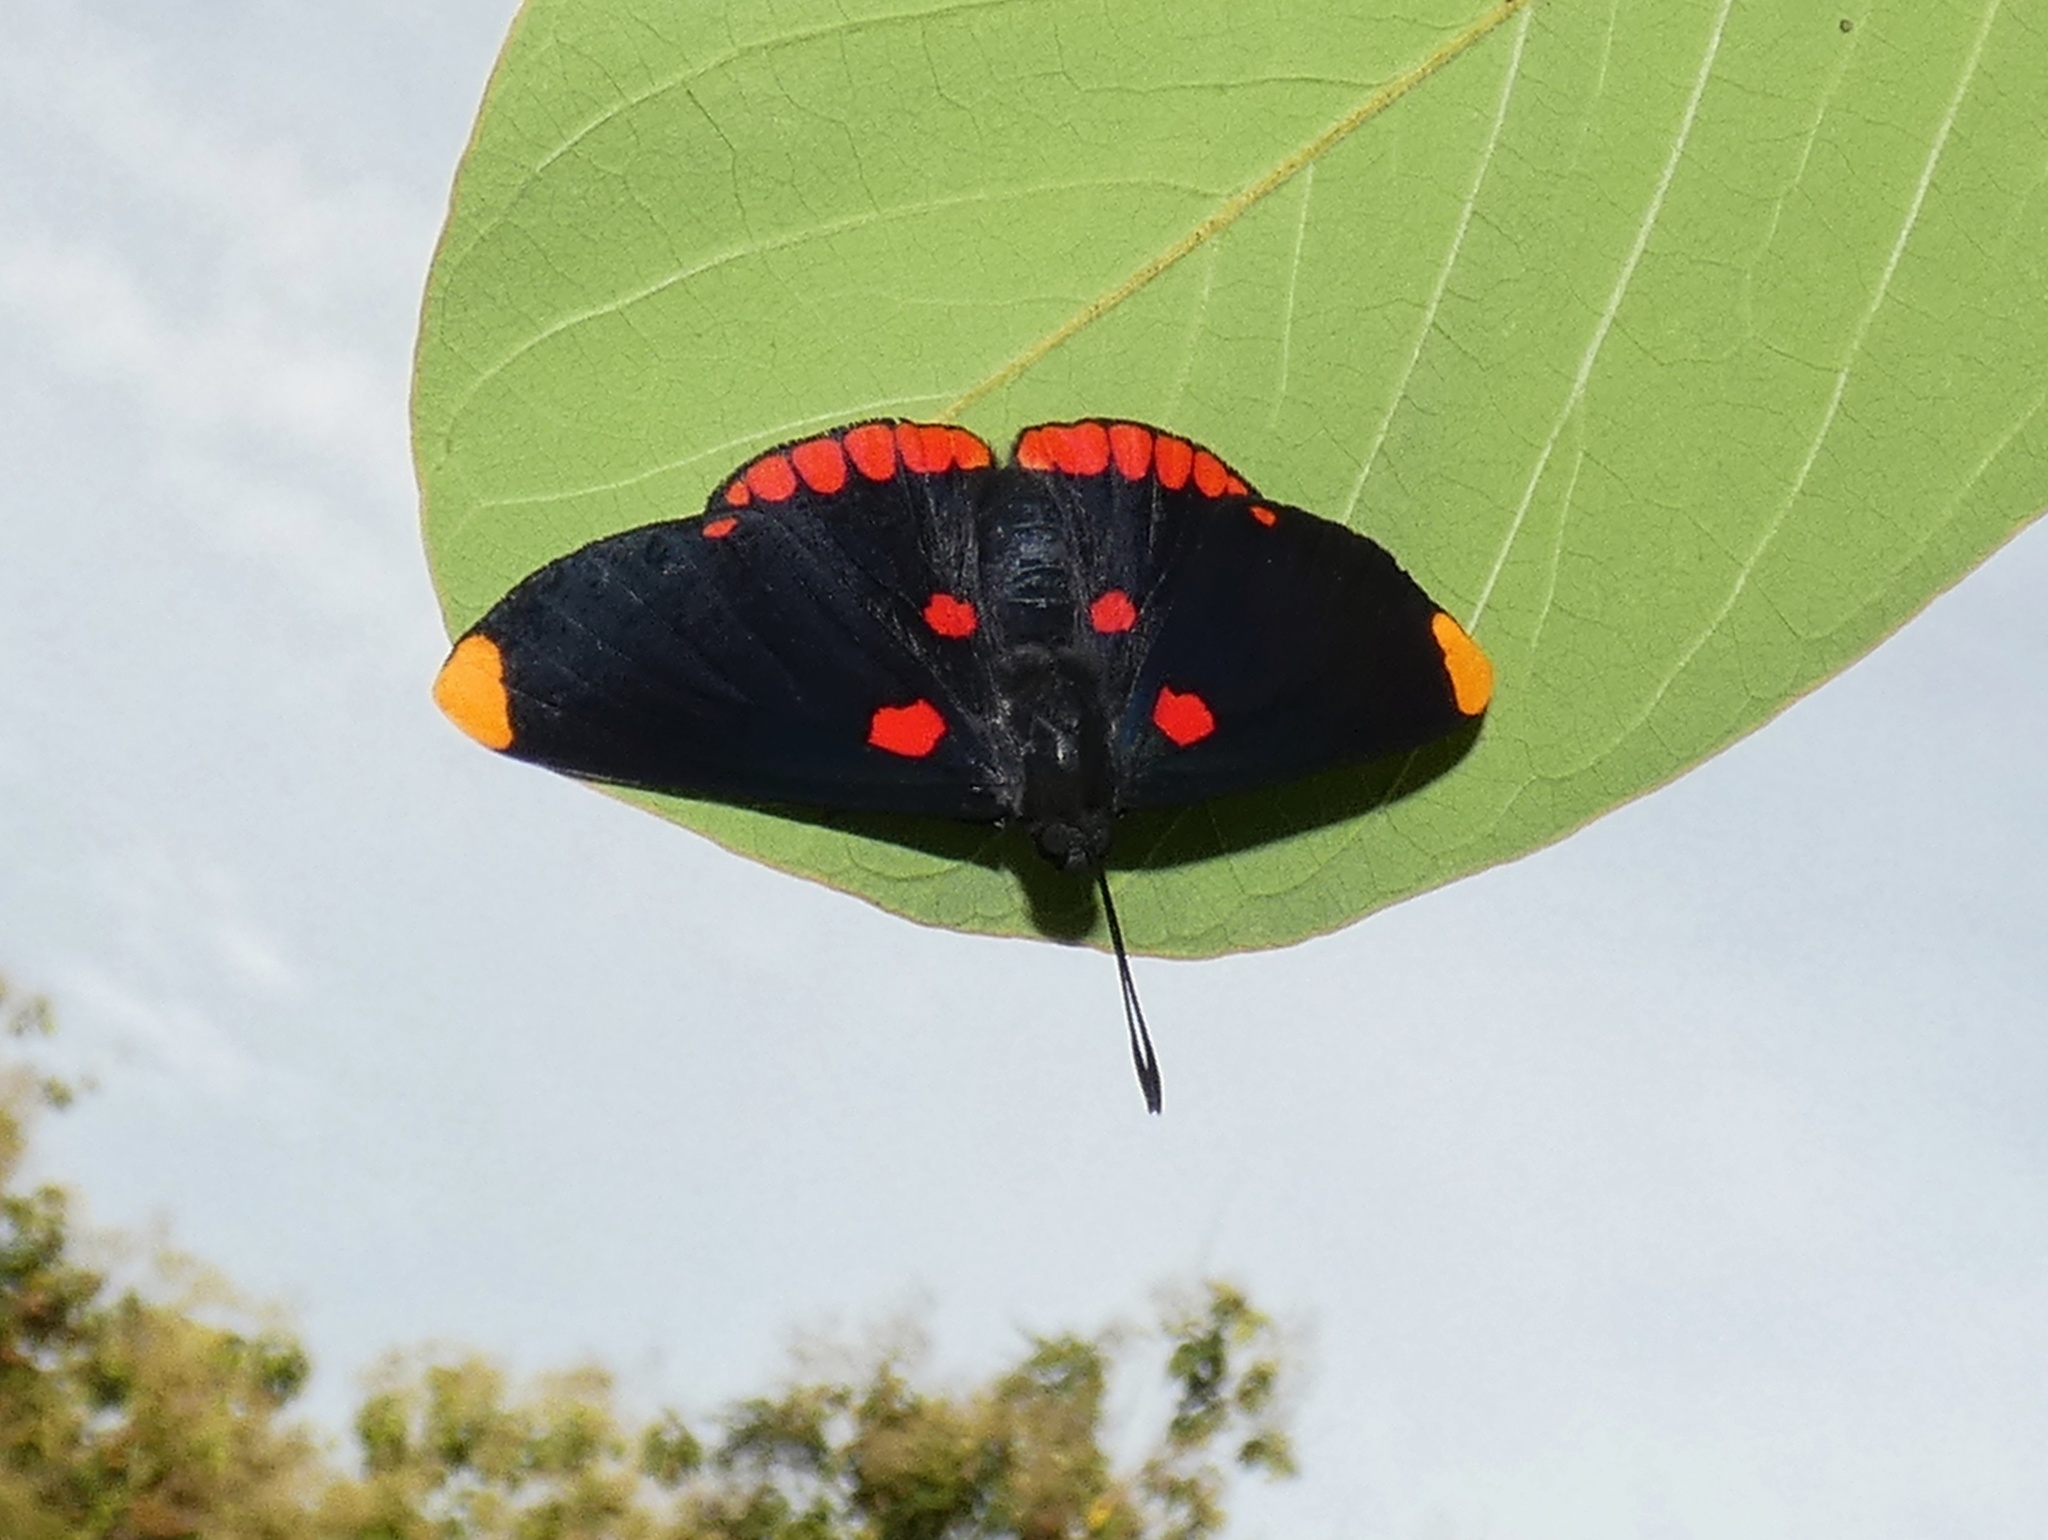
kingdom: Animalia
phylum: Arthropoda
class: Insecta
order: Lepidoptera
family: Lycaenidae
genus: Melanis
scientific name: Melanis pixe
